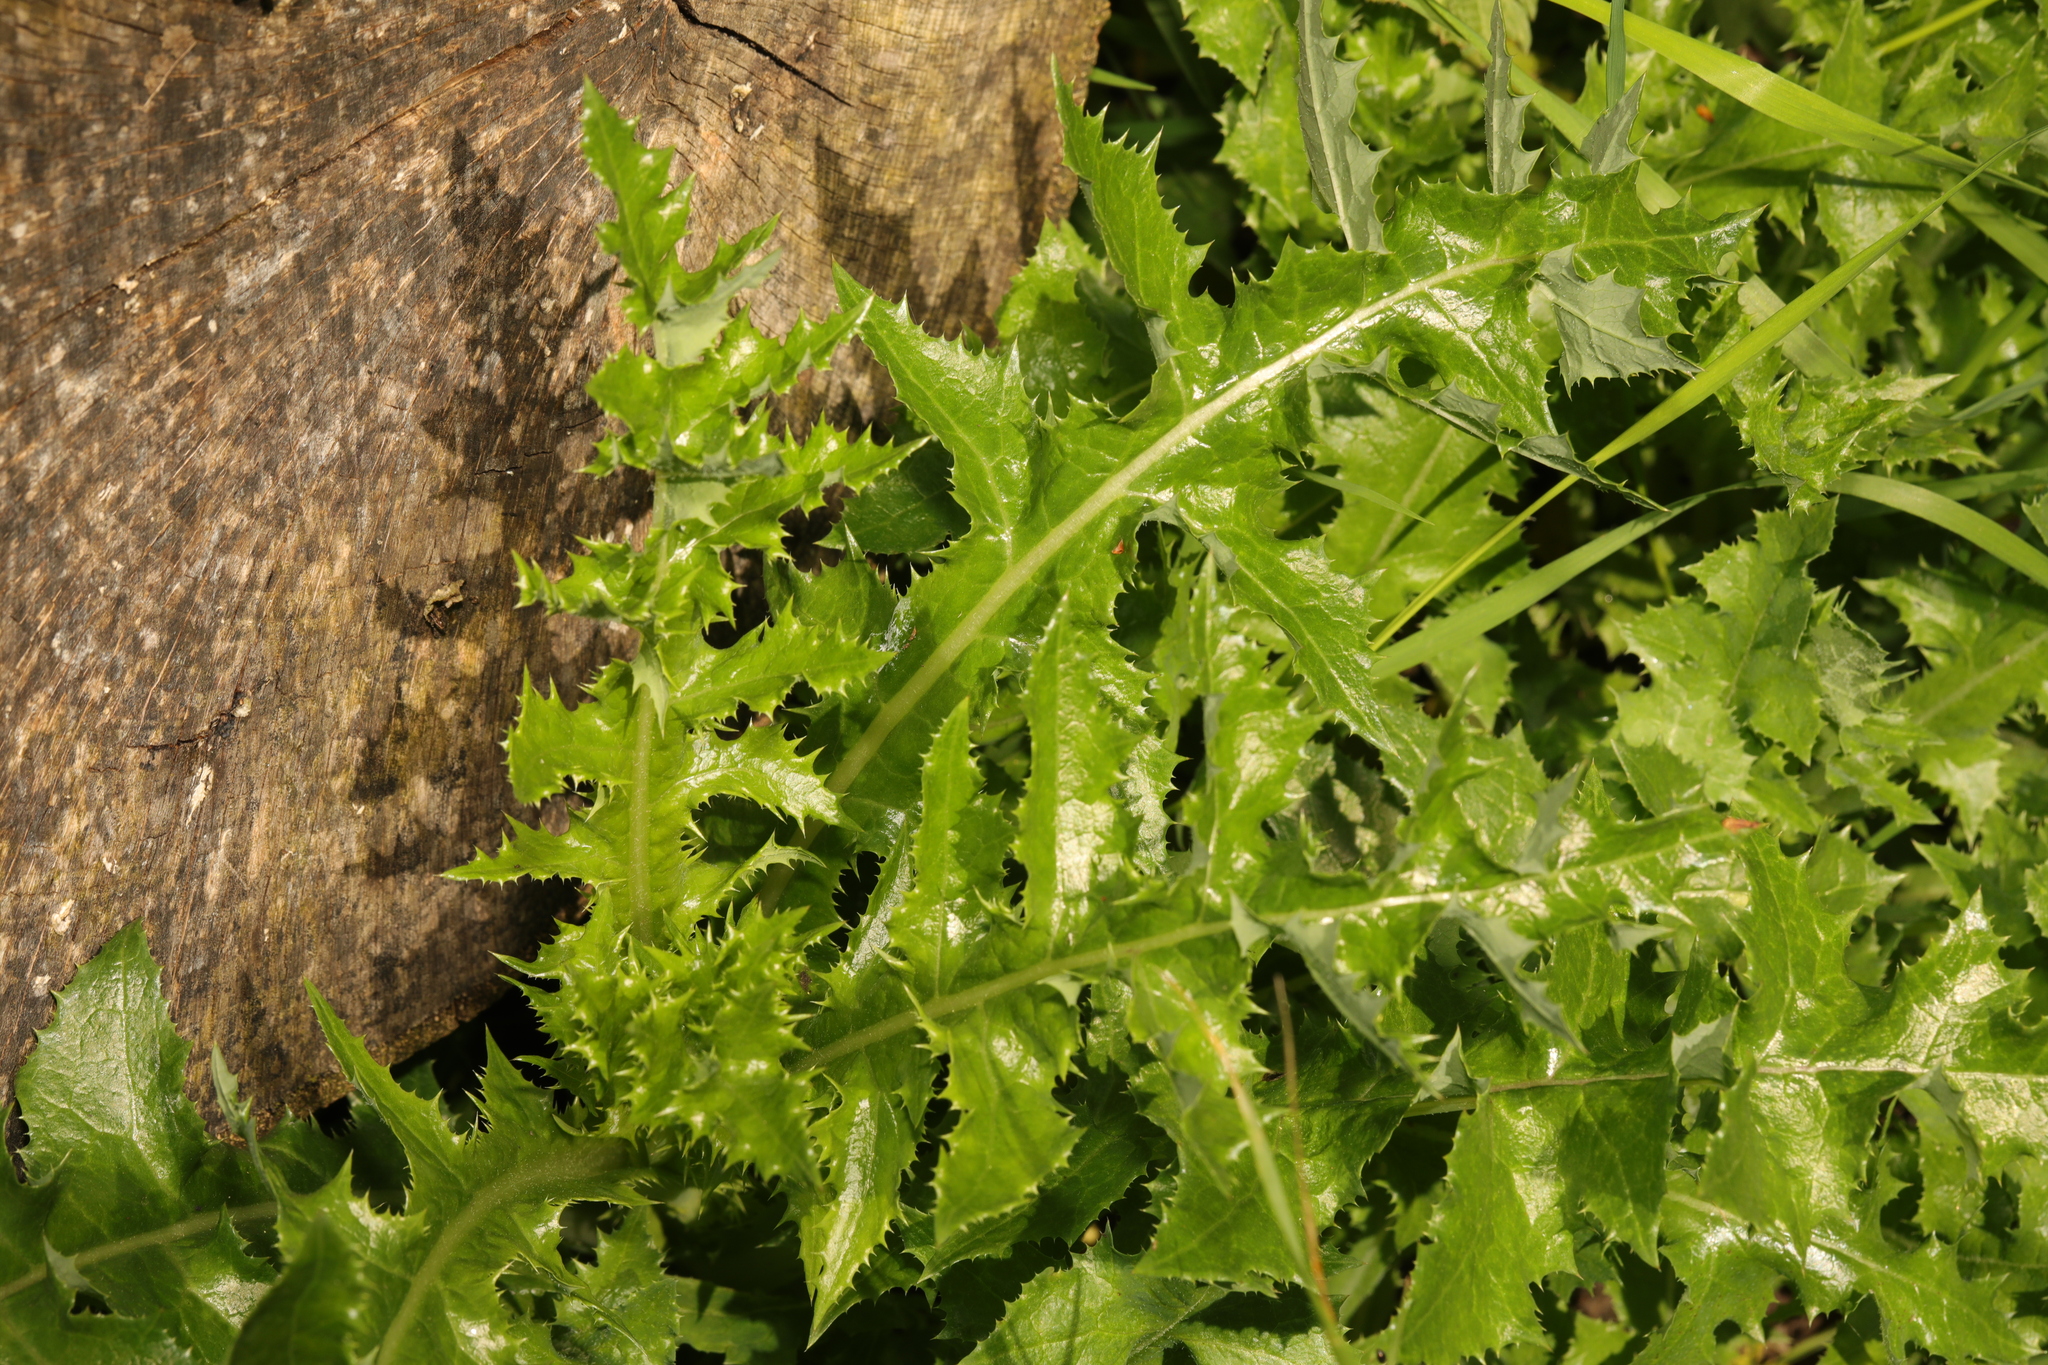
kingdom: Plantae
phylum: Tracheophyta
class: Magnoliopsida
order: Asterales
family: Asteraceae
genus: Sonchus
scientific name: Sonchus asper
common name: Prickly sow-thistle
